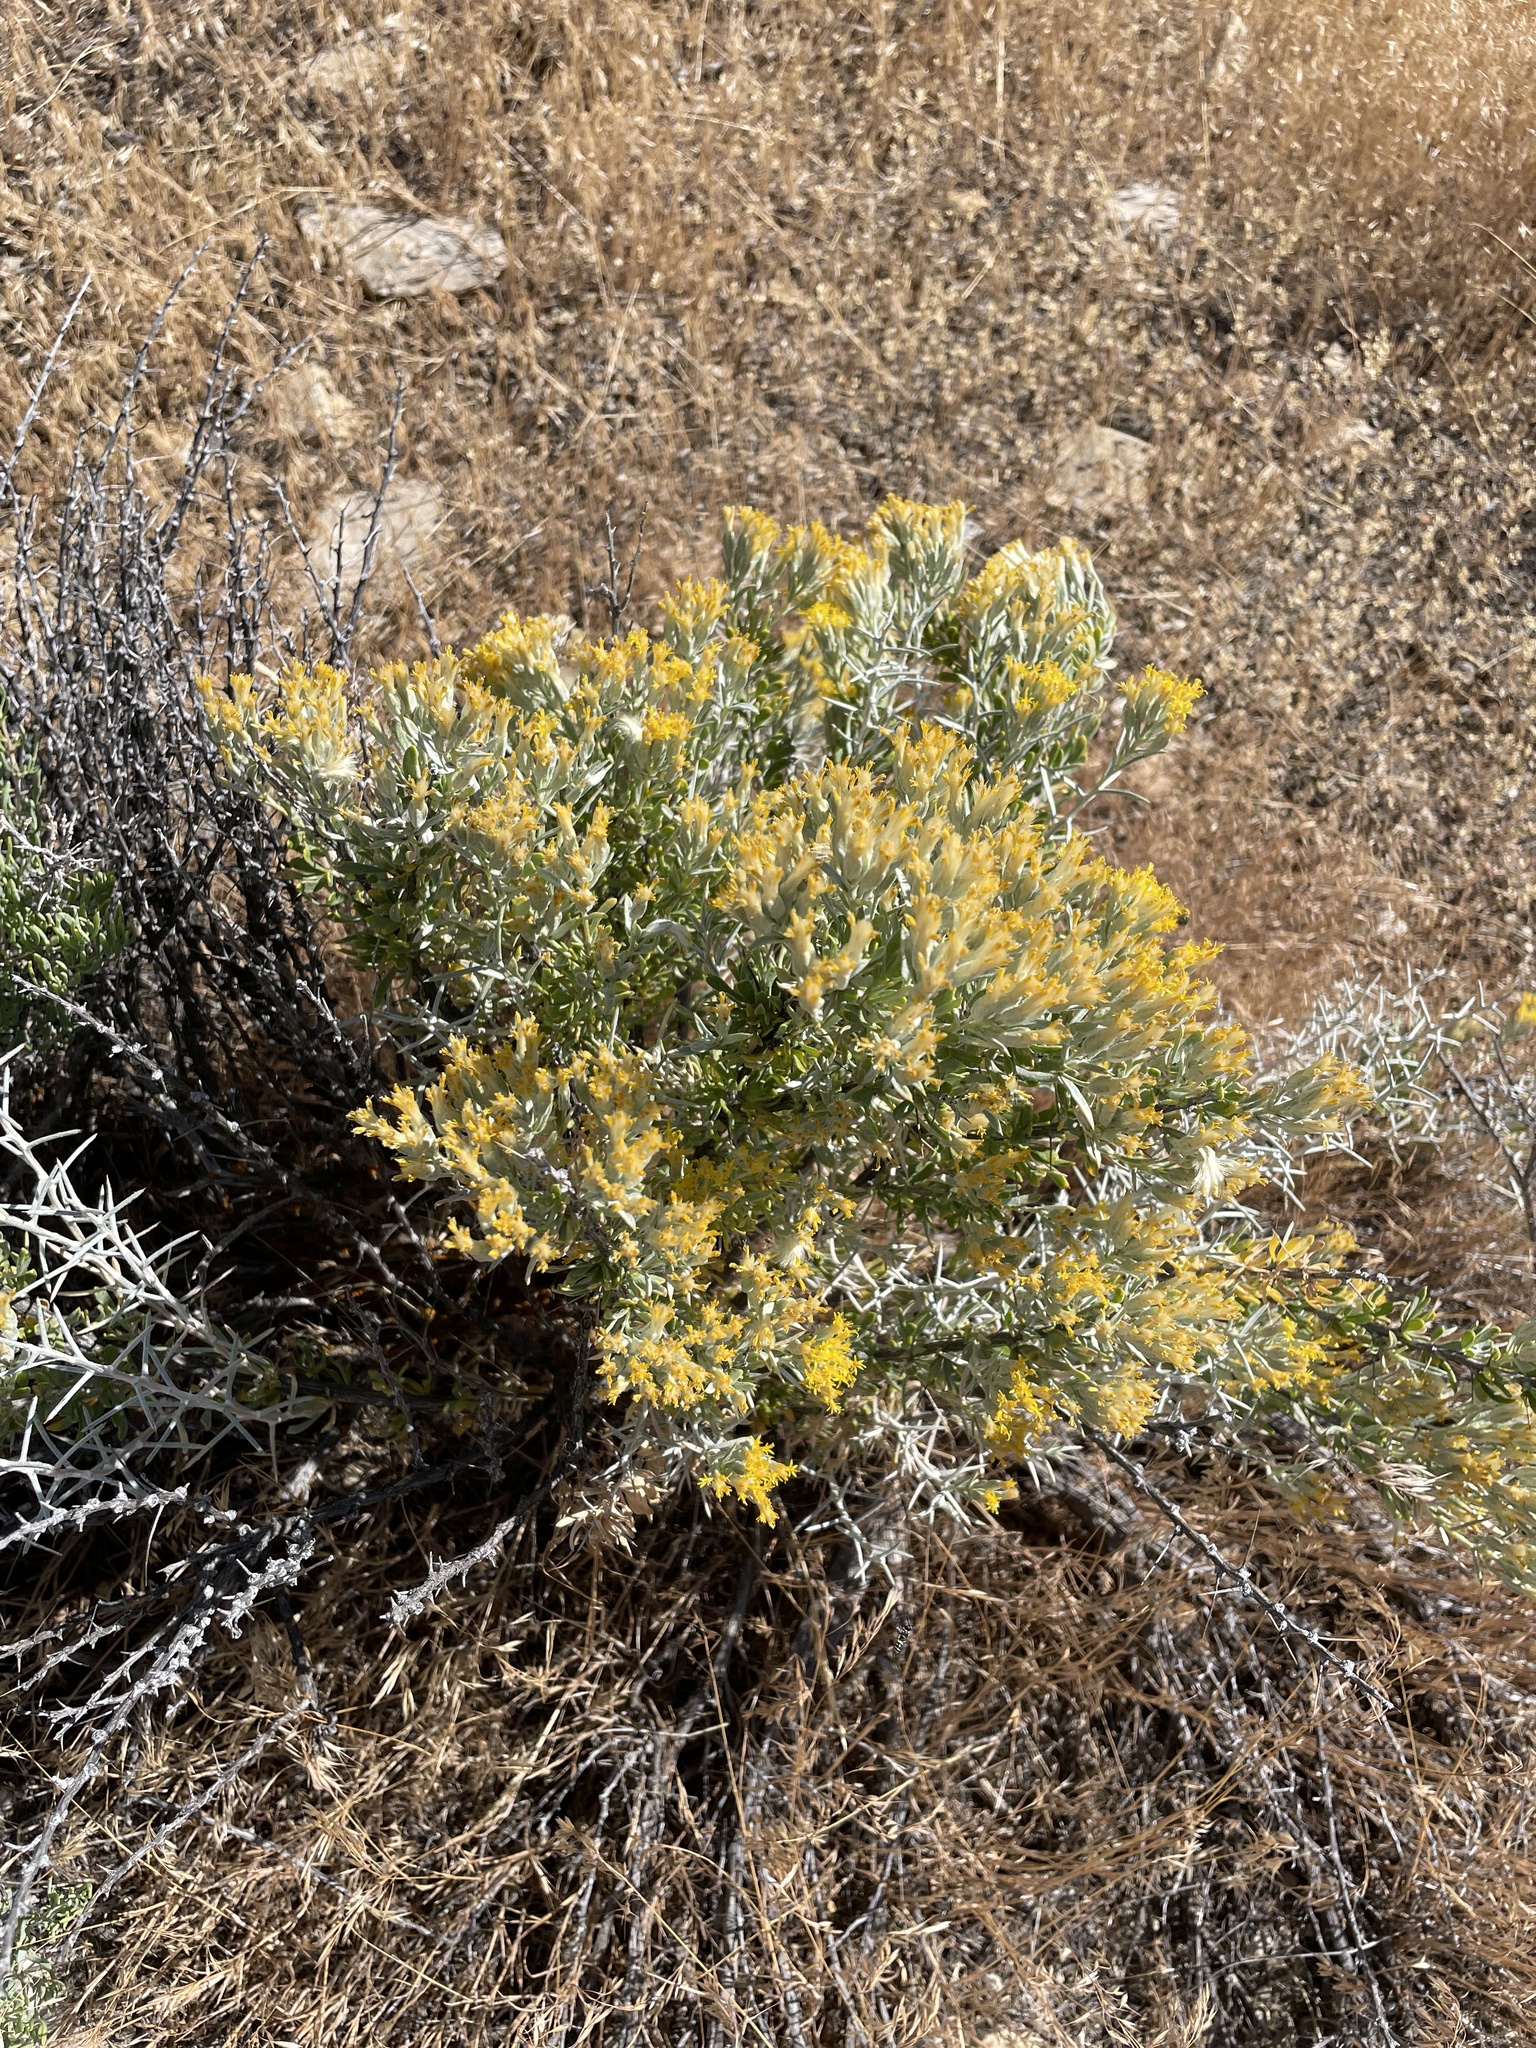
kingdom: Plantae
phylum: Tracheophyta
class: Magnoliopsida
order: Asterales
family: Asteraceae
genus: Tetradymia
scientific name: Tetradymia nuttallii
